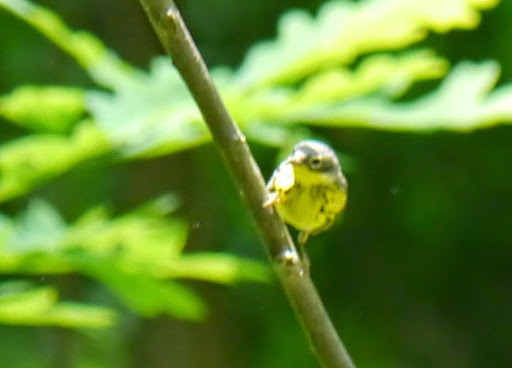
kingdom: Animalia
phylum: Chordata
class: Aves
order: Passeriformes
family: Parulidae
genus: Setophaga
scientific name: Setophaga magnolia
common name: Magnolia warbler
